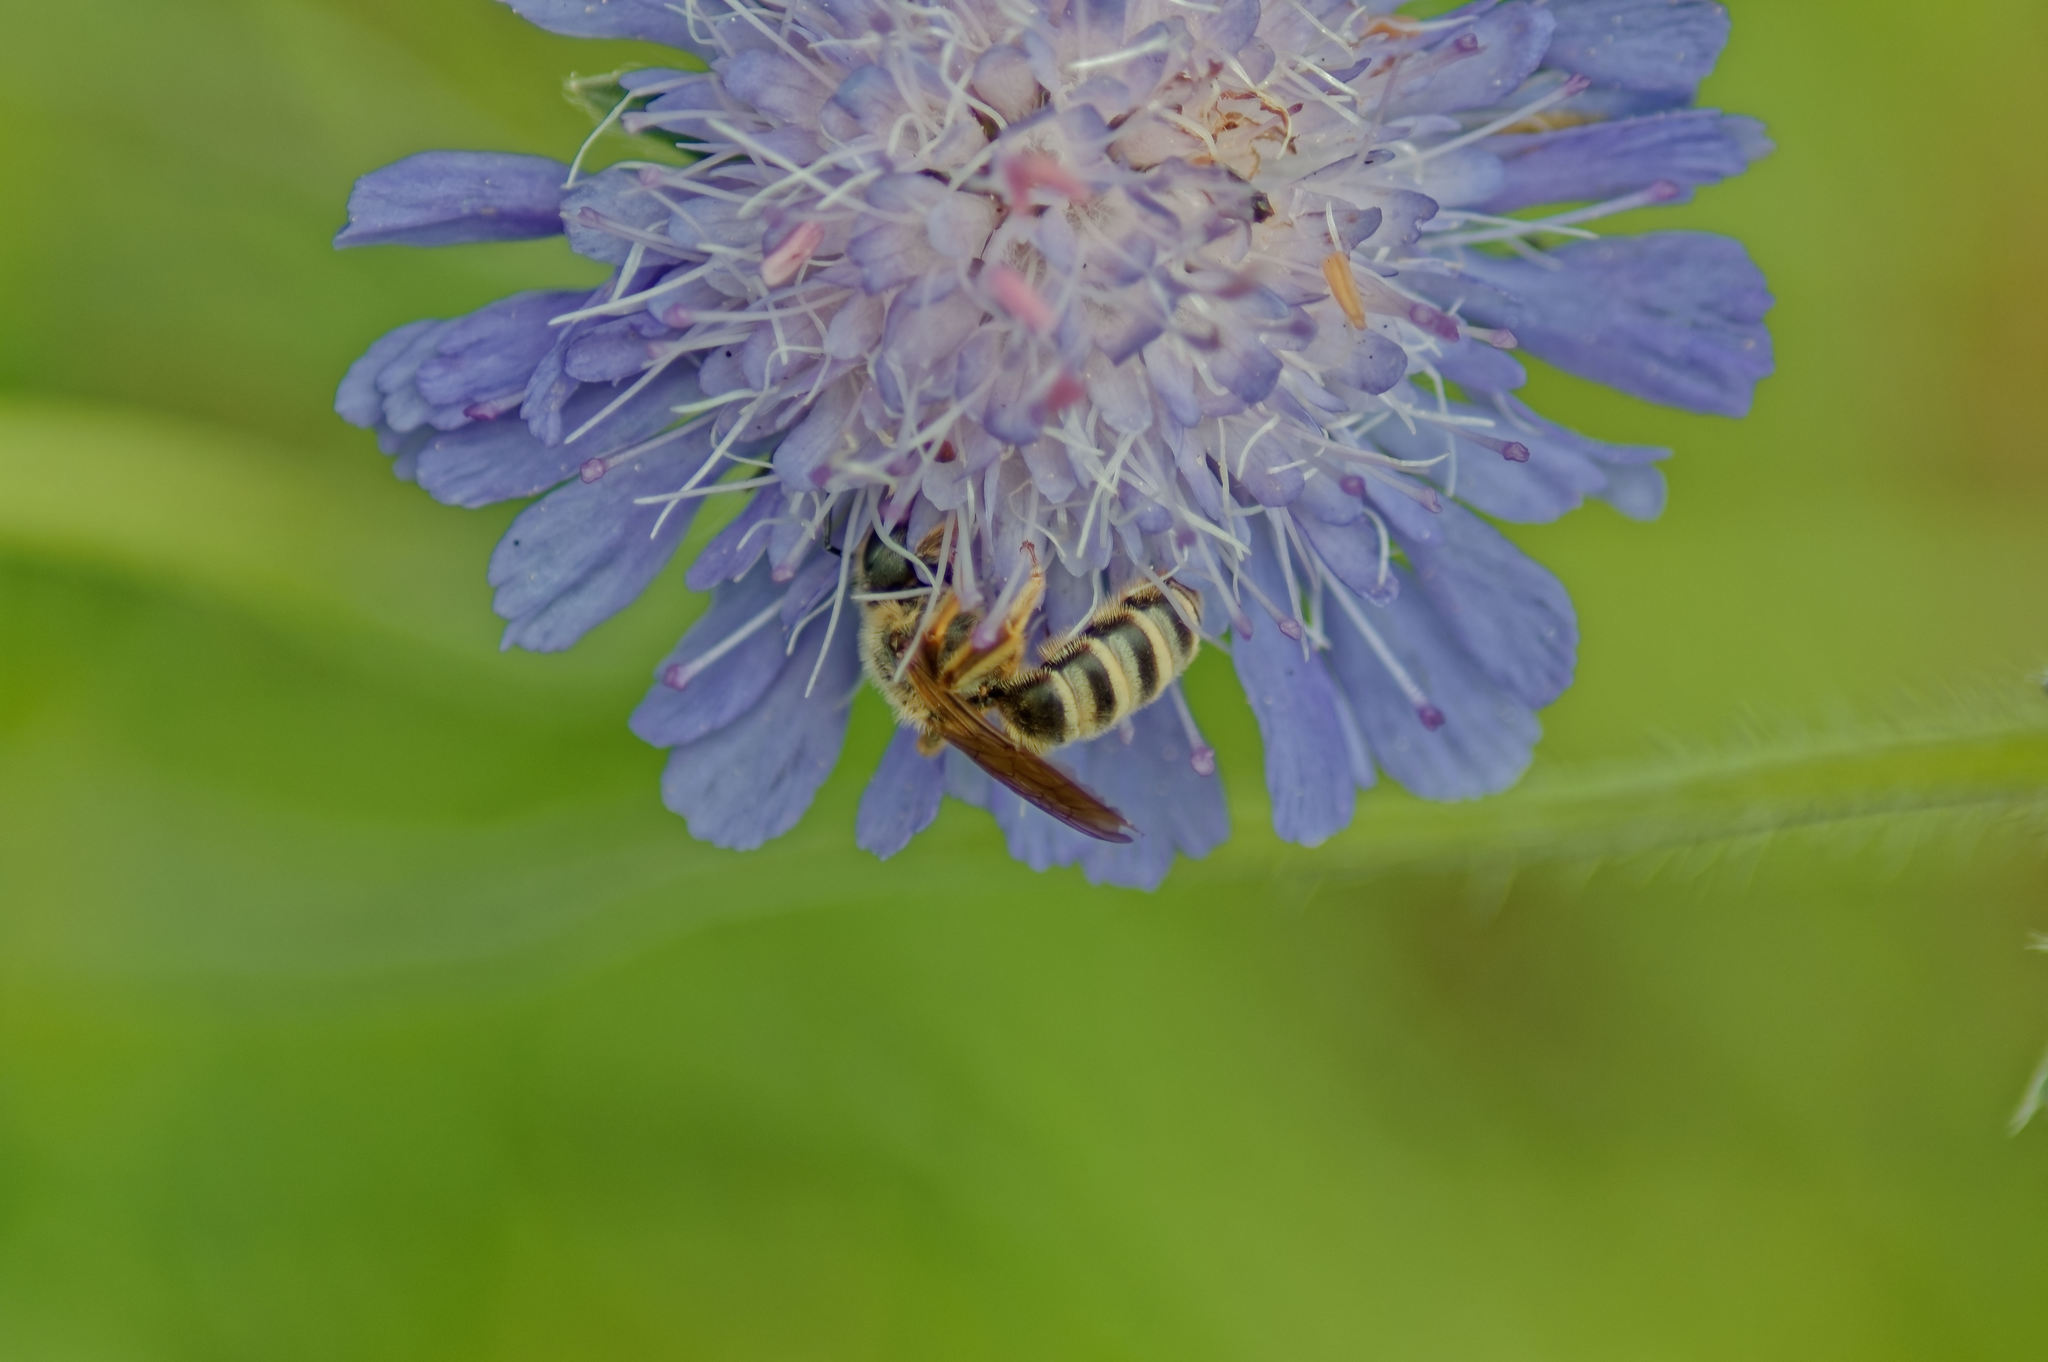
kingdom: Animalia
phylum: Arthropoda
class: Insecta
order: Hymenoptera
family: Halictidae
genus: Halictus
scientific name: Halictus scabiosae
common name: Great banded furrow bee
